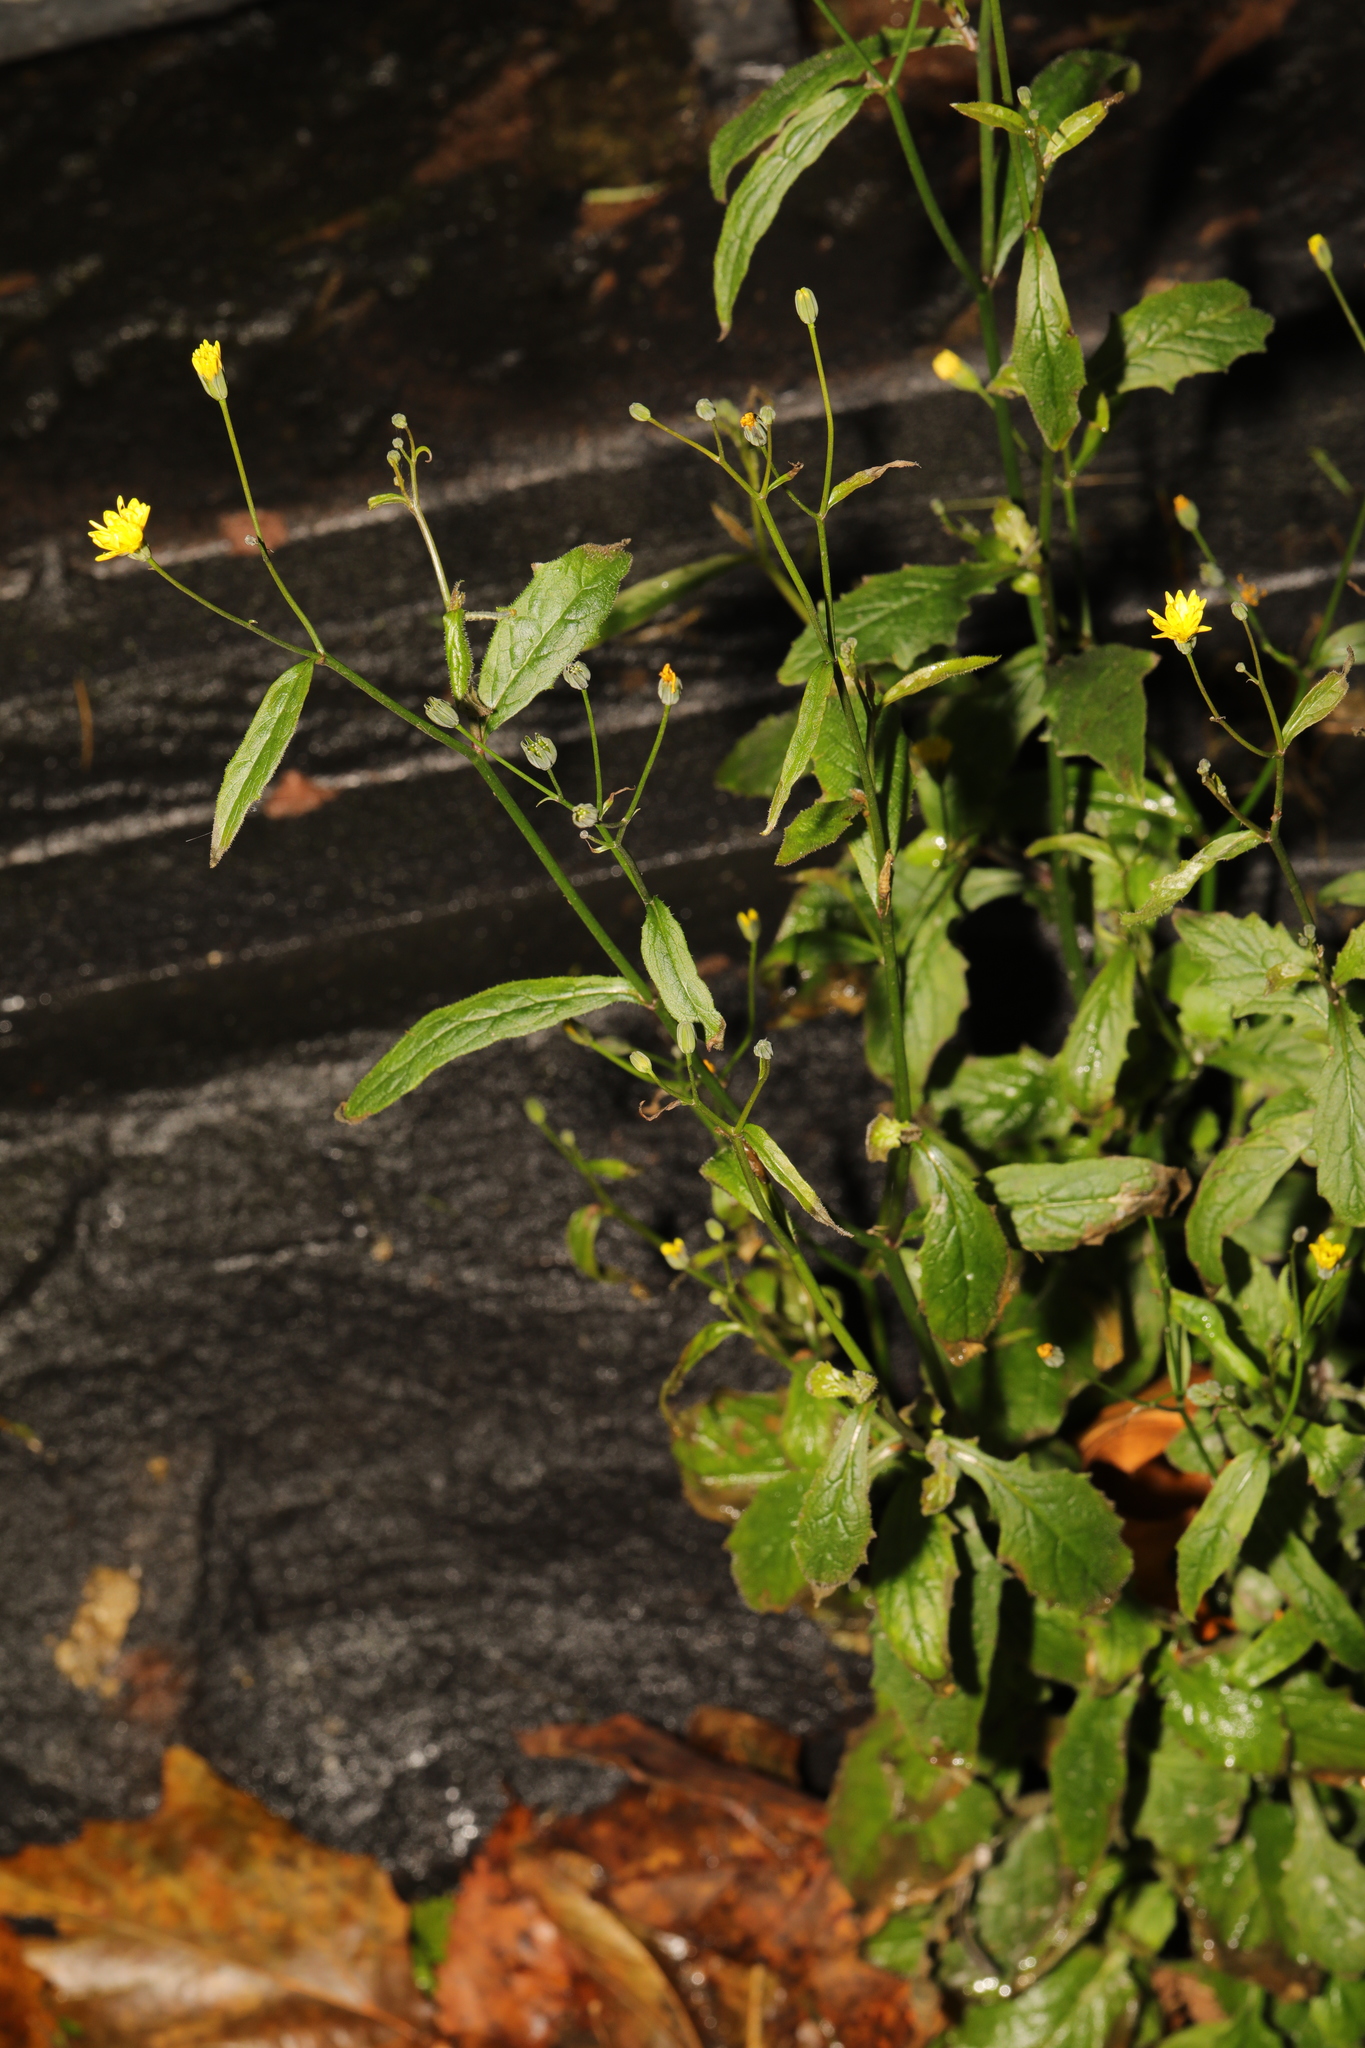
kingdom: Plantae
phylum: Tracheophyta
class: Magnoliopsida
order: Asterales
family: Asteraceae
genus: Lapsana
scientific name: Lapsana communis
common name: Nipplewort
